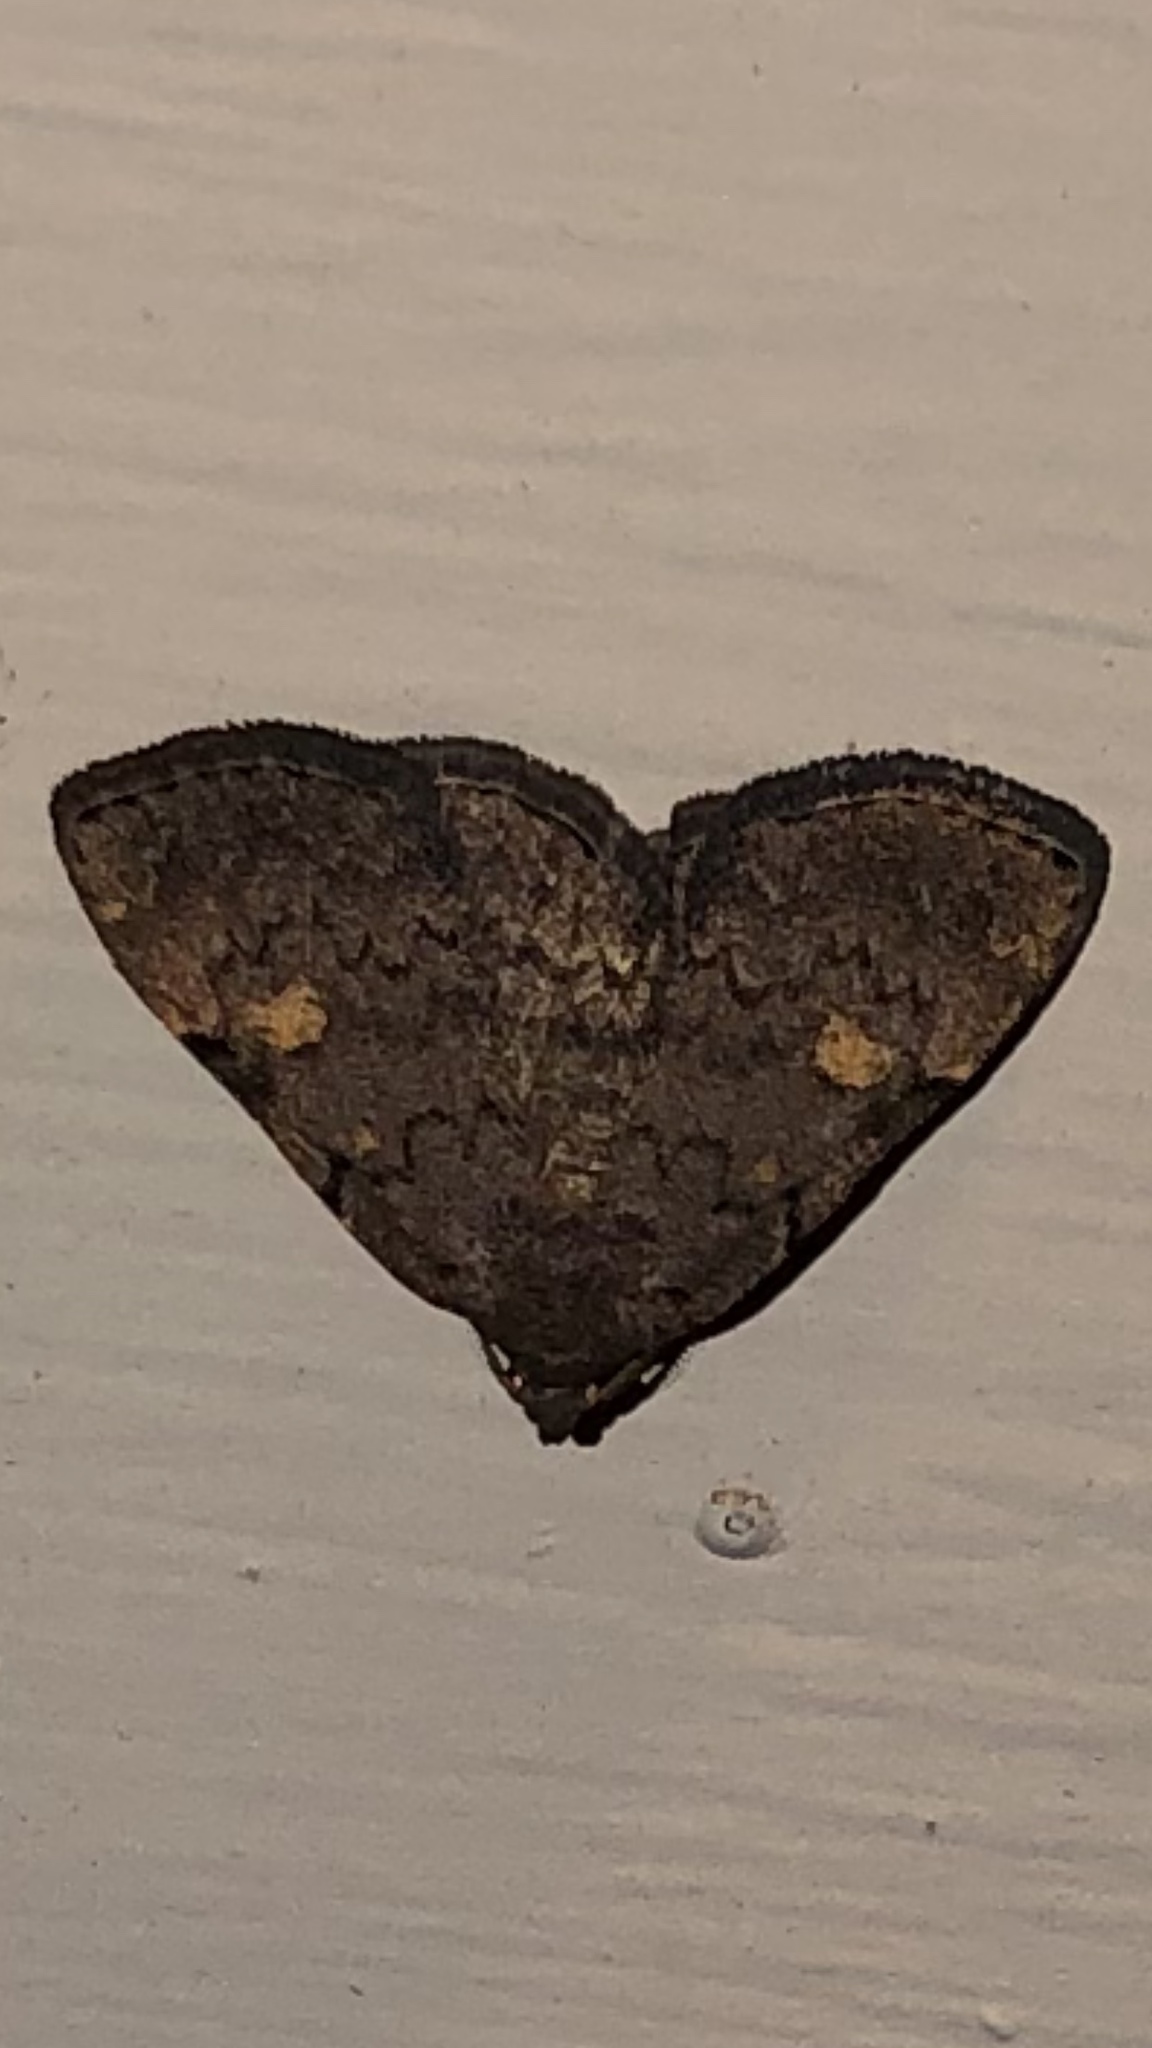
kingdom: Animalia
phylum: Arthropoda
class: Insecta
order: Lepidoptera
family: Erebidae
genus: Idia
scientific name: Idia aemula
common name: Common idia moth
